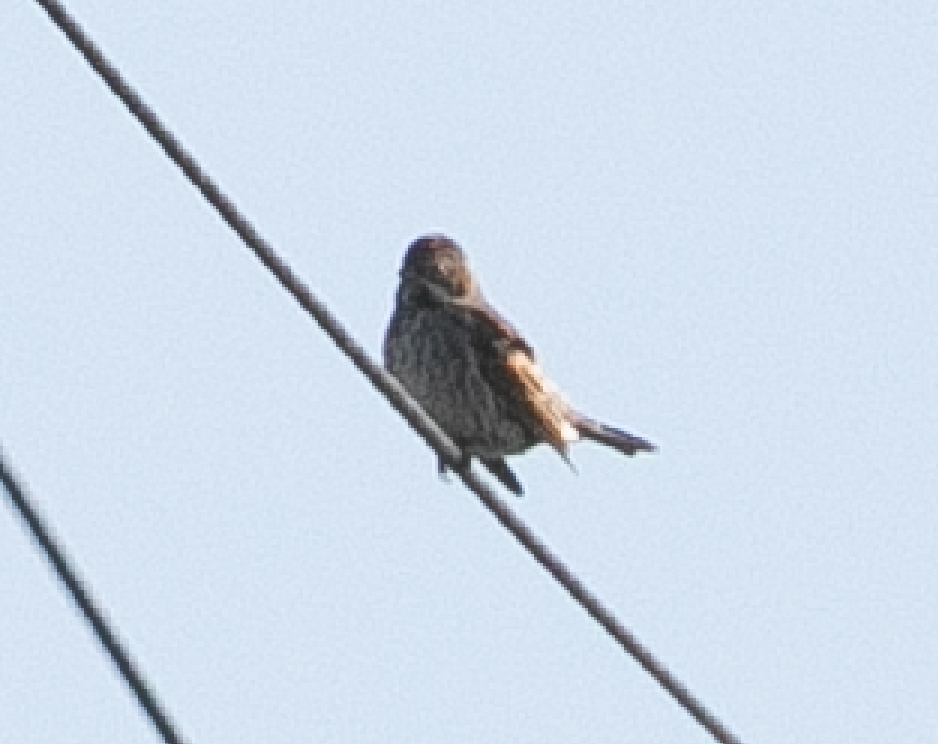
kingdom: Animalia
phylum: Chordata
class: Aves
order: Passeriformes
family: Emberizidae
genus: Emberiza
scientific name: Emberiza schoeniclus
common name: Reed bunting
